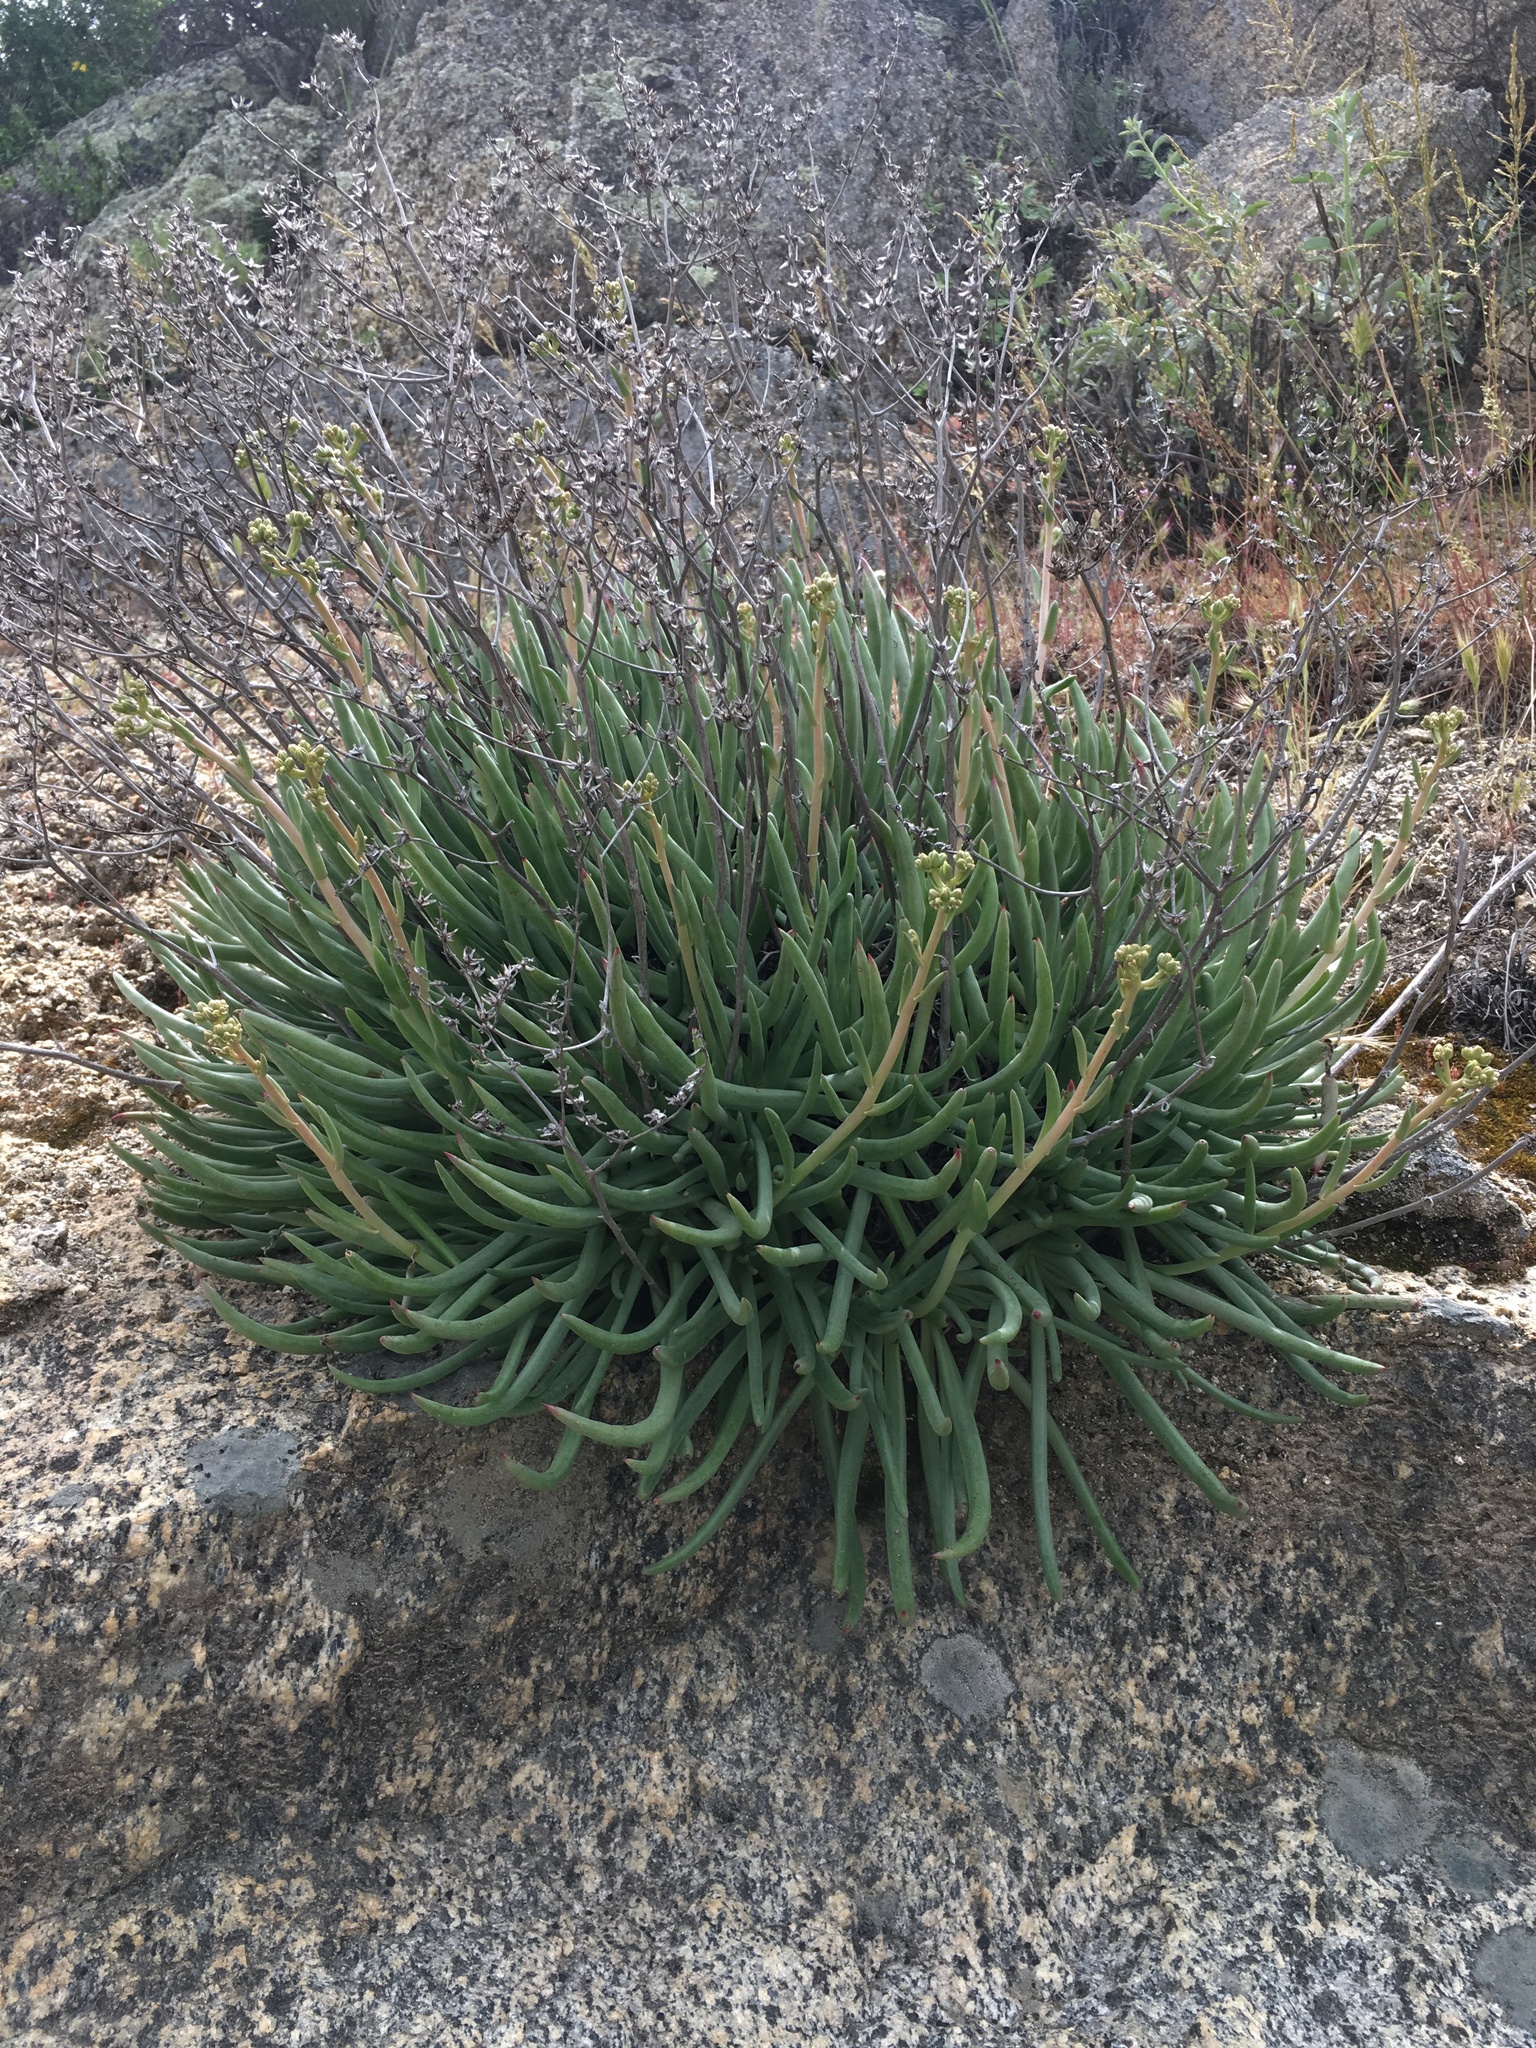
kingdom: Plantae
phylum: Tracheophyta
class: Magnoliopsida
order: Saxifragales
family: Crassulaceae
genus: Dudleya
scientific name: Dudleya edulis
